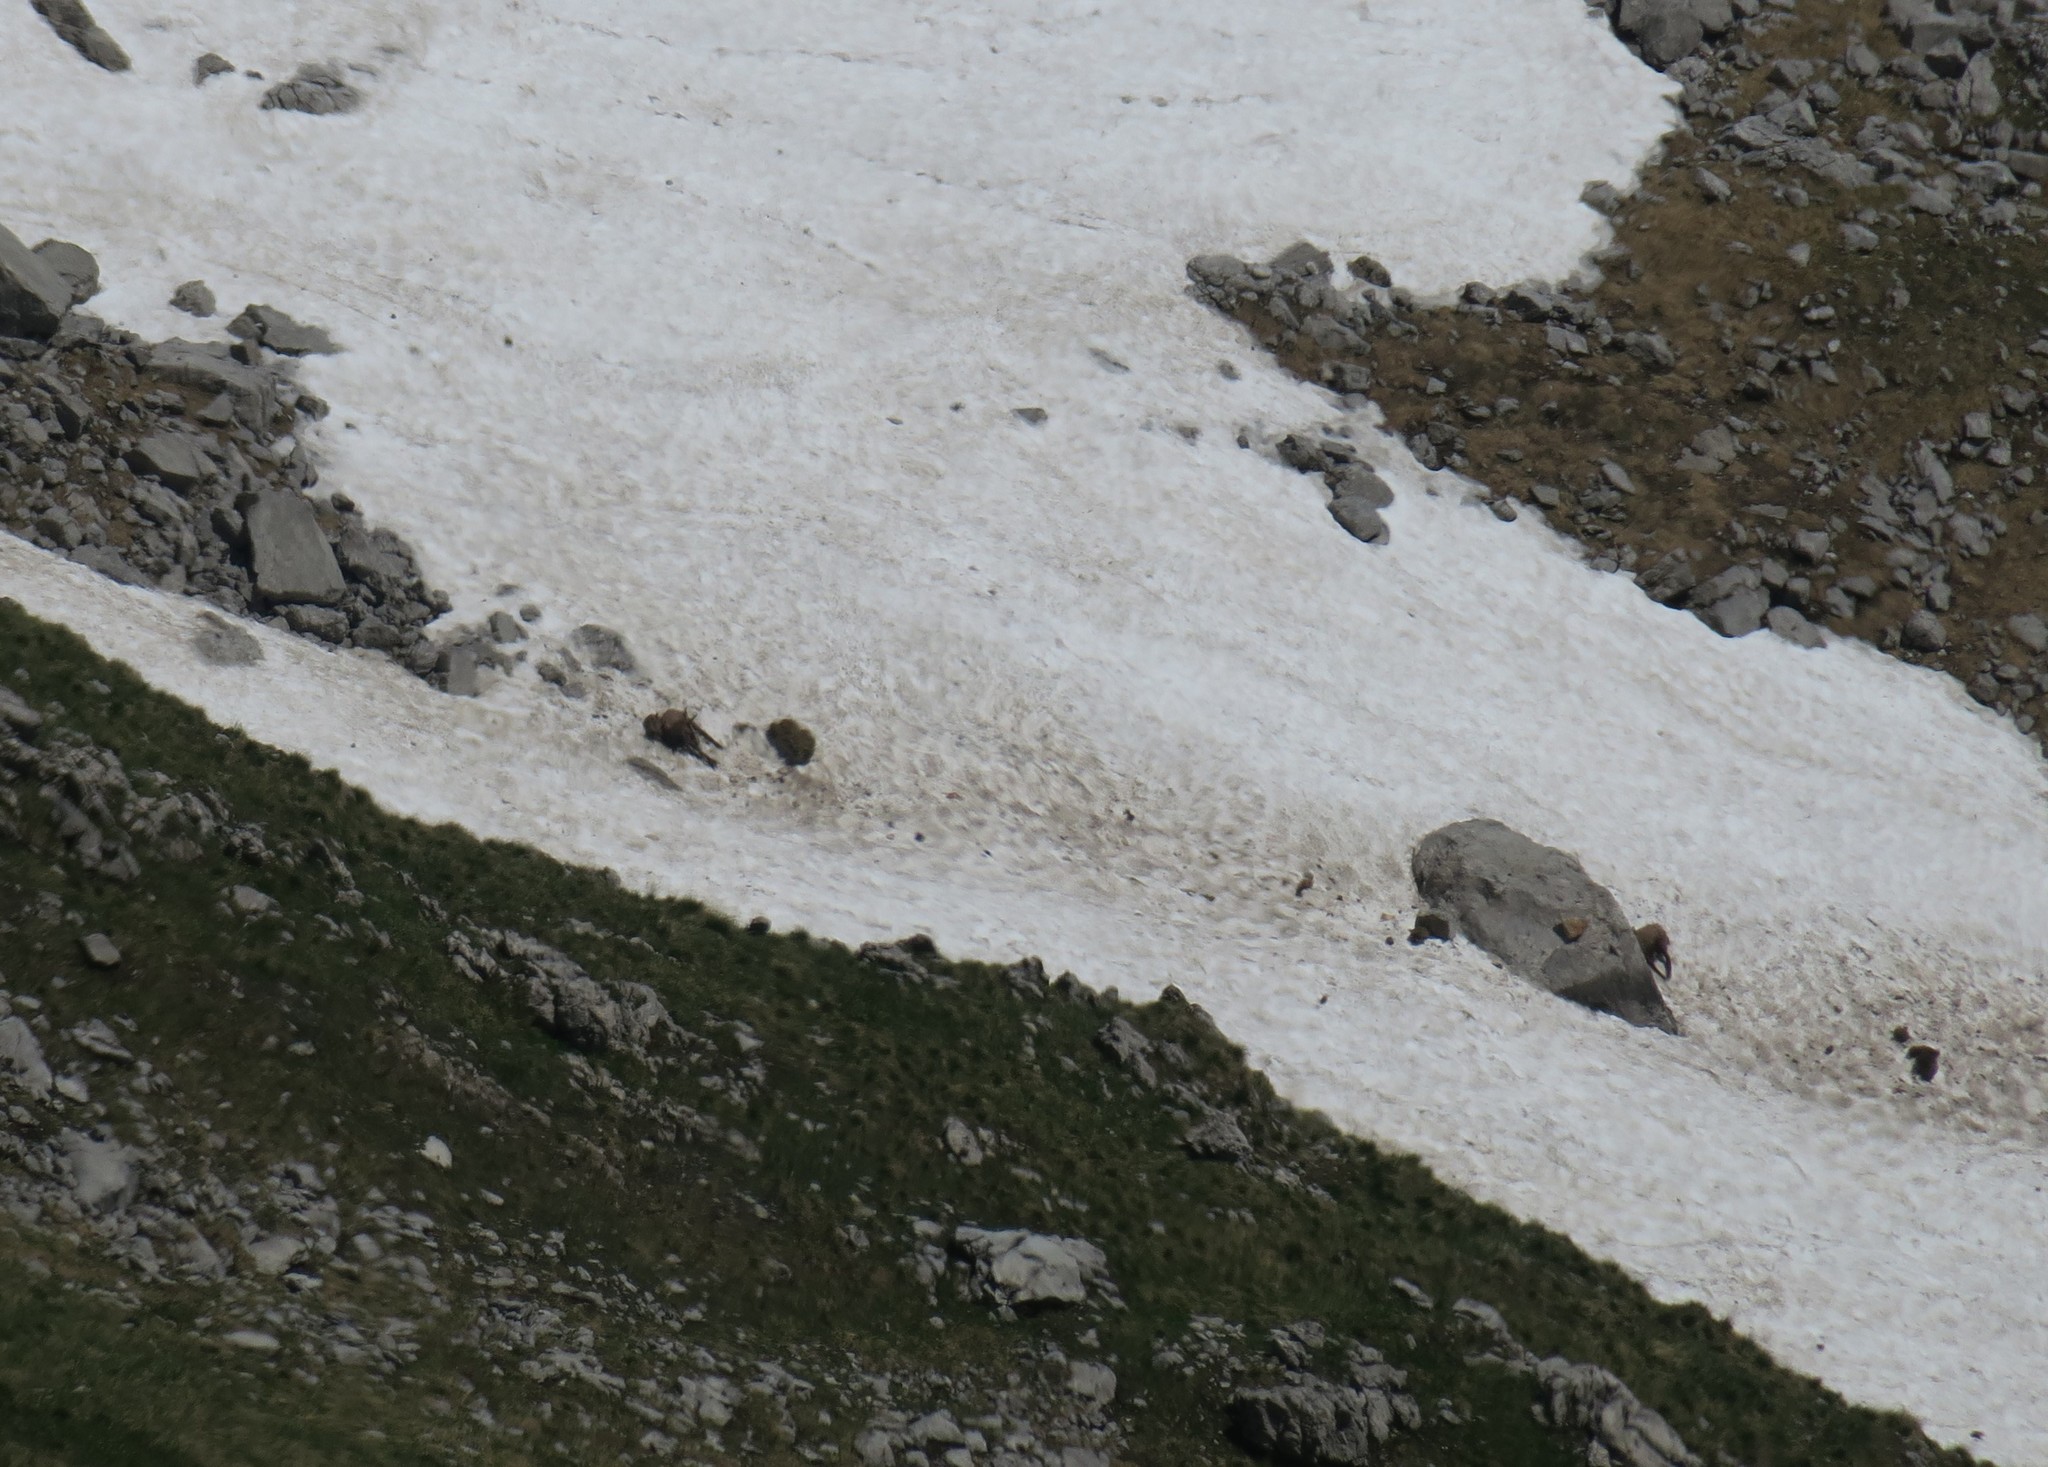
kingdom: Animalia
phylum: Chordata
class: Mammalia
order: Artiodactyla
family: Bovidae
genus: Rupicapra
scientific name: Rupicapra rupicapra
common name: Chamois
